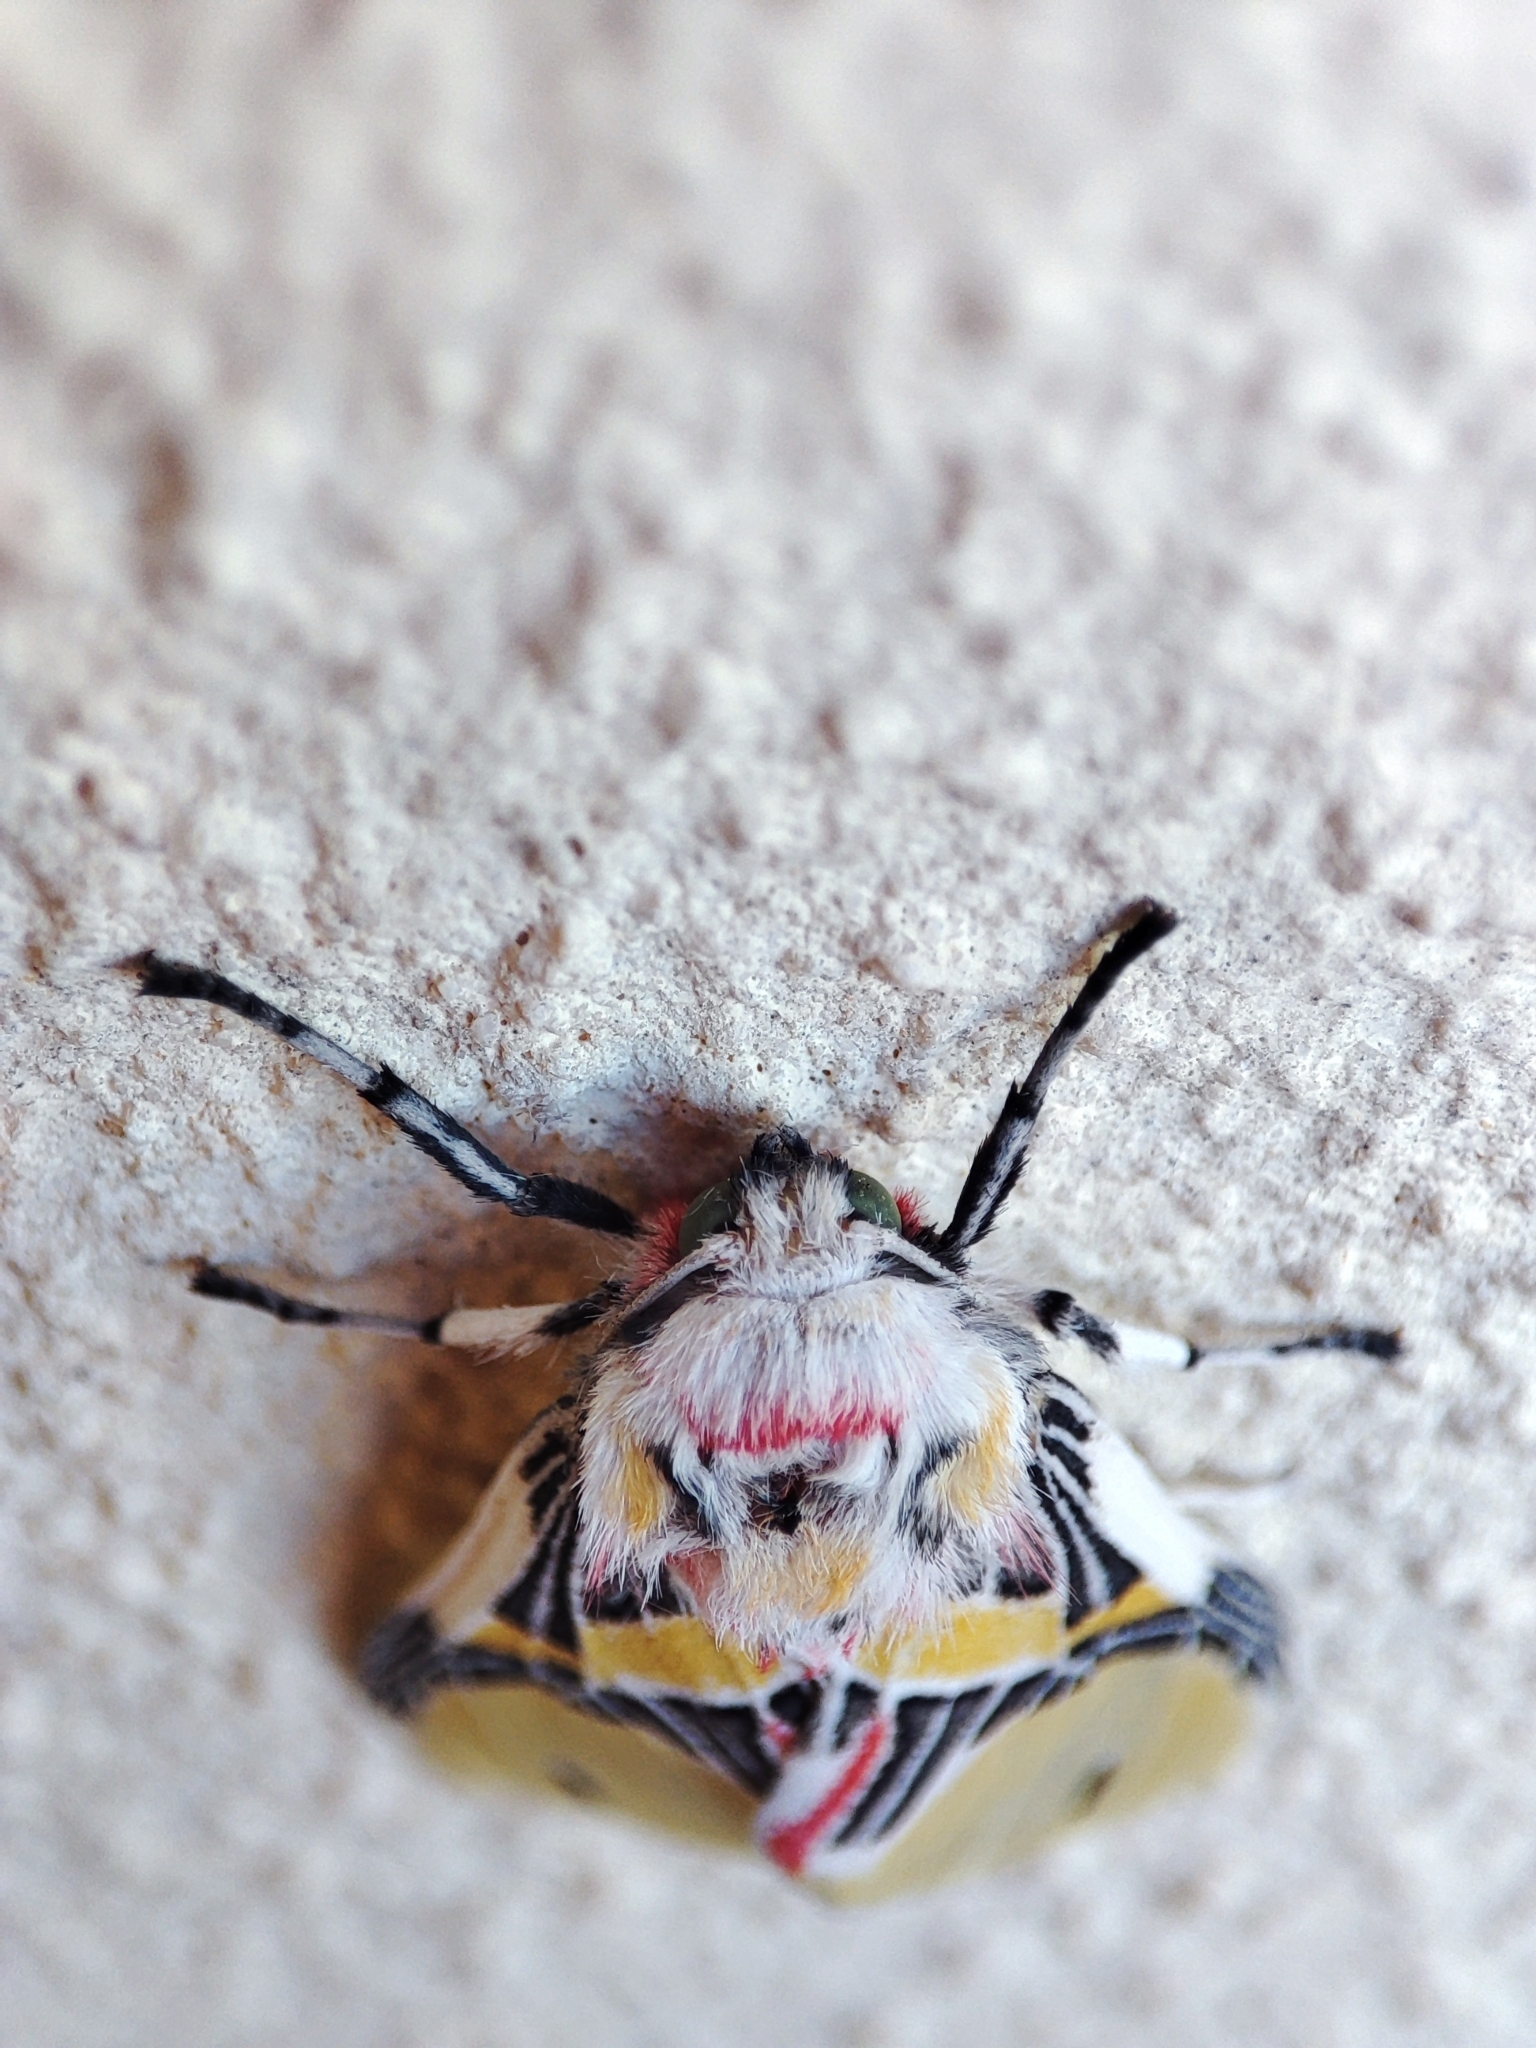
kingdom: Animalia
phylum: Arthropoda
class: Insecta
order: Lepidoptera
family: Erebidae
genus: Idalus
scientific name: Idalus agastus
